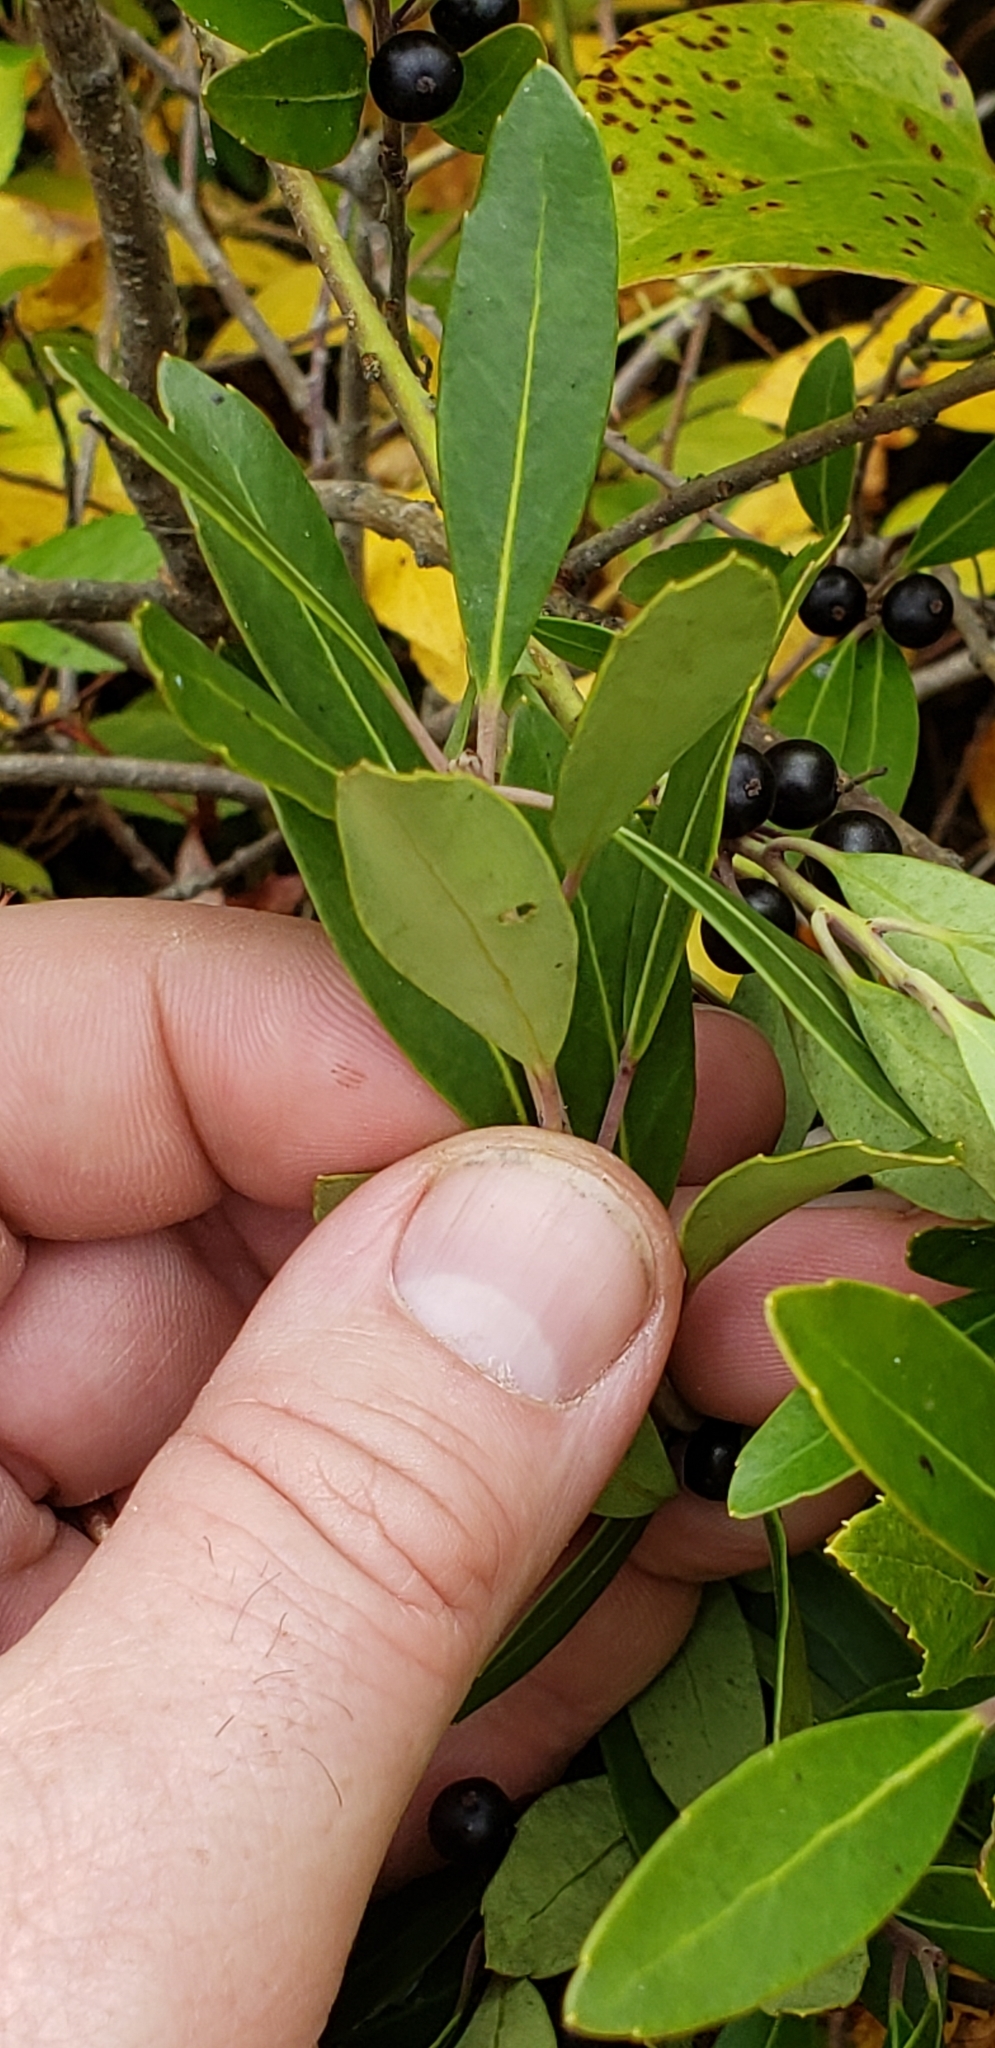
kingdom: Plantae
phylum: Tracheophyta
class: Magnoliopsida
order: Aquifoliales
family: Aquifoliaceae
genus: Ilex
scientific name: Ilex glabra
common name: Bitter gallberry
